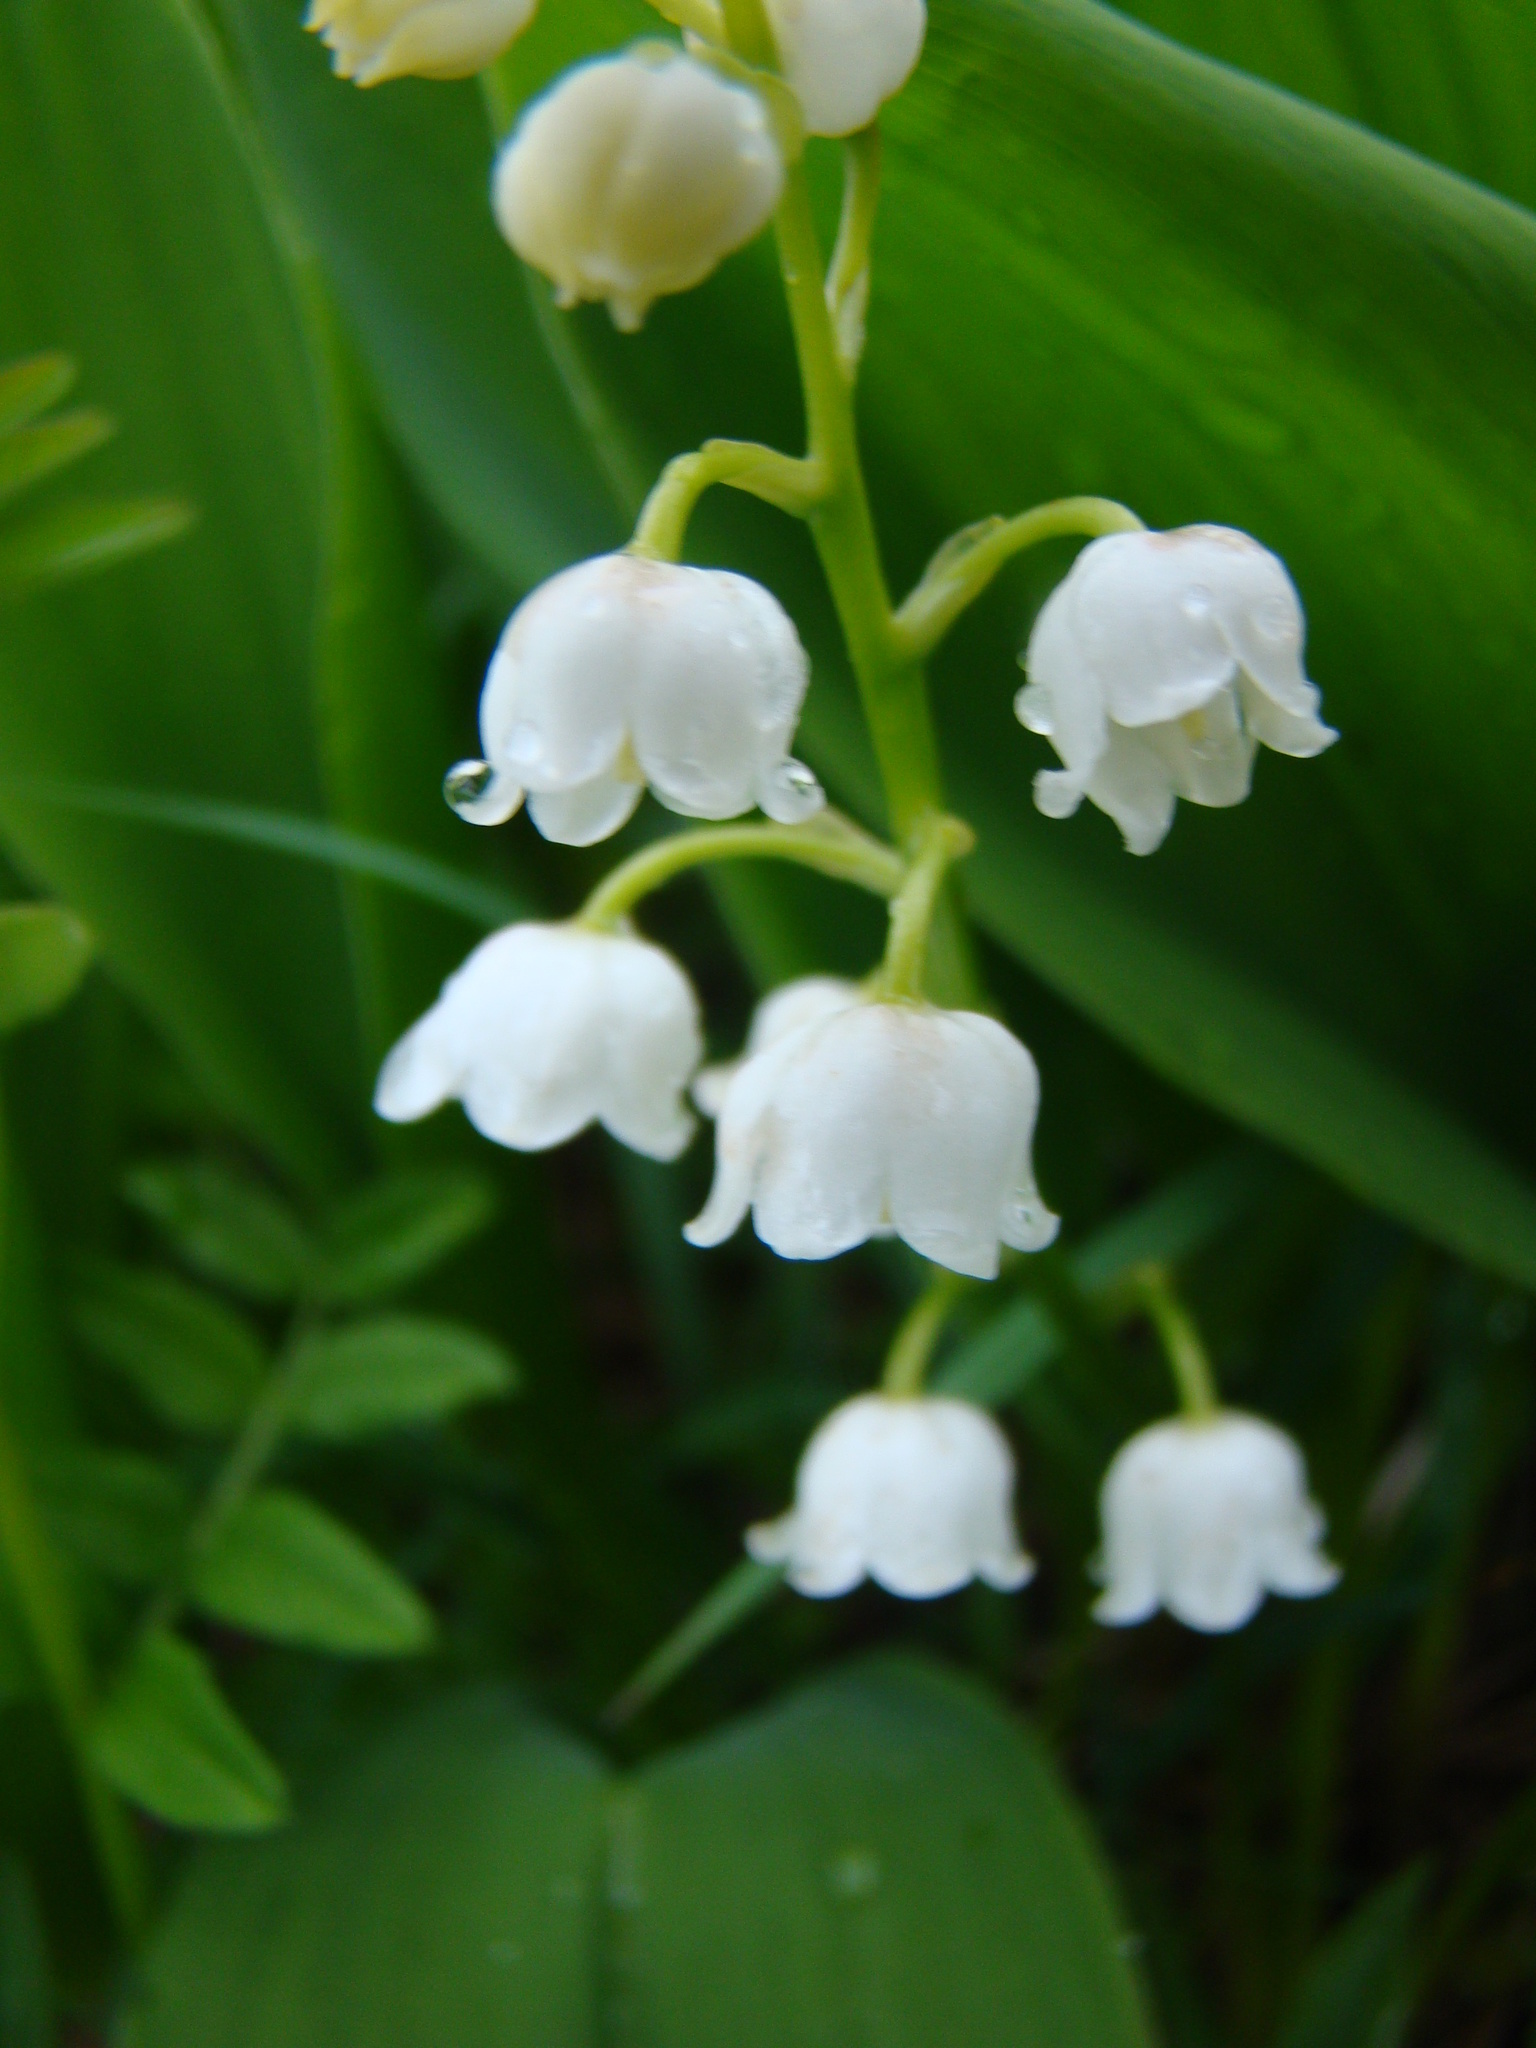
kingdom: Plantae
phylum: Tracheophyta
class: Liliopsida
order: Asparagales
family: Asparagaceae
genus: Convallaria
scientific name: Convallaria majalis
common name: Lily-of-the-valley
